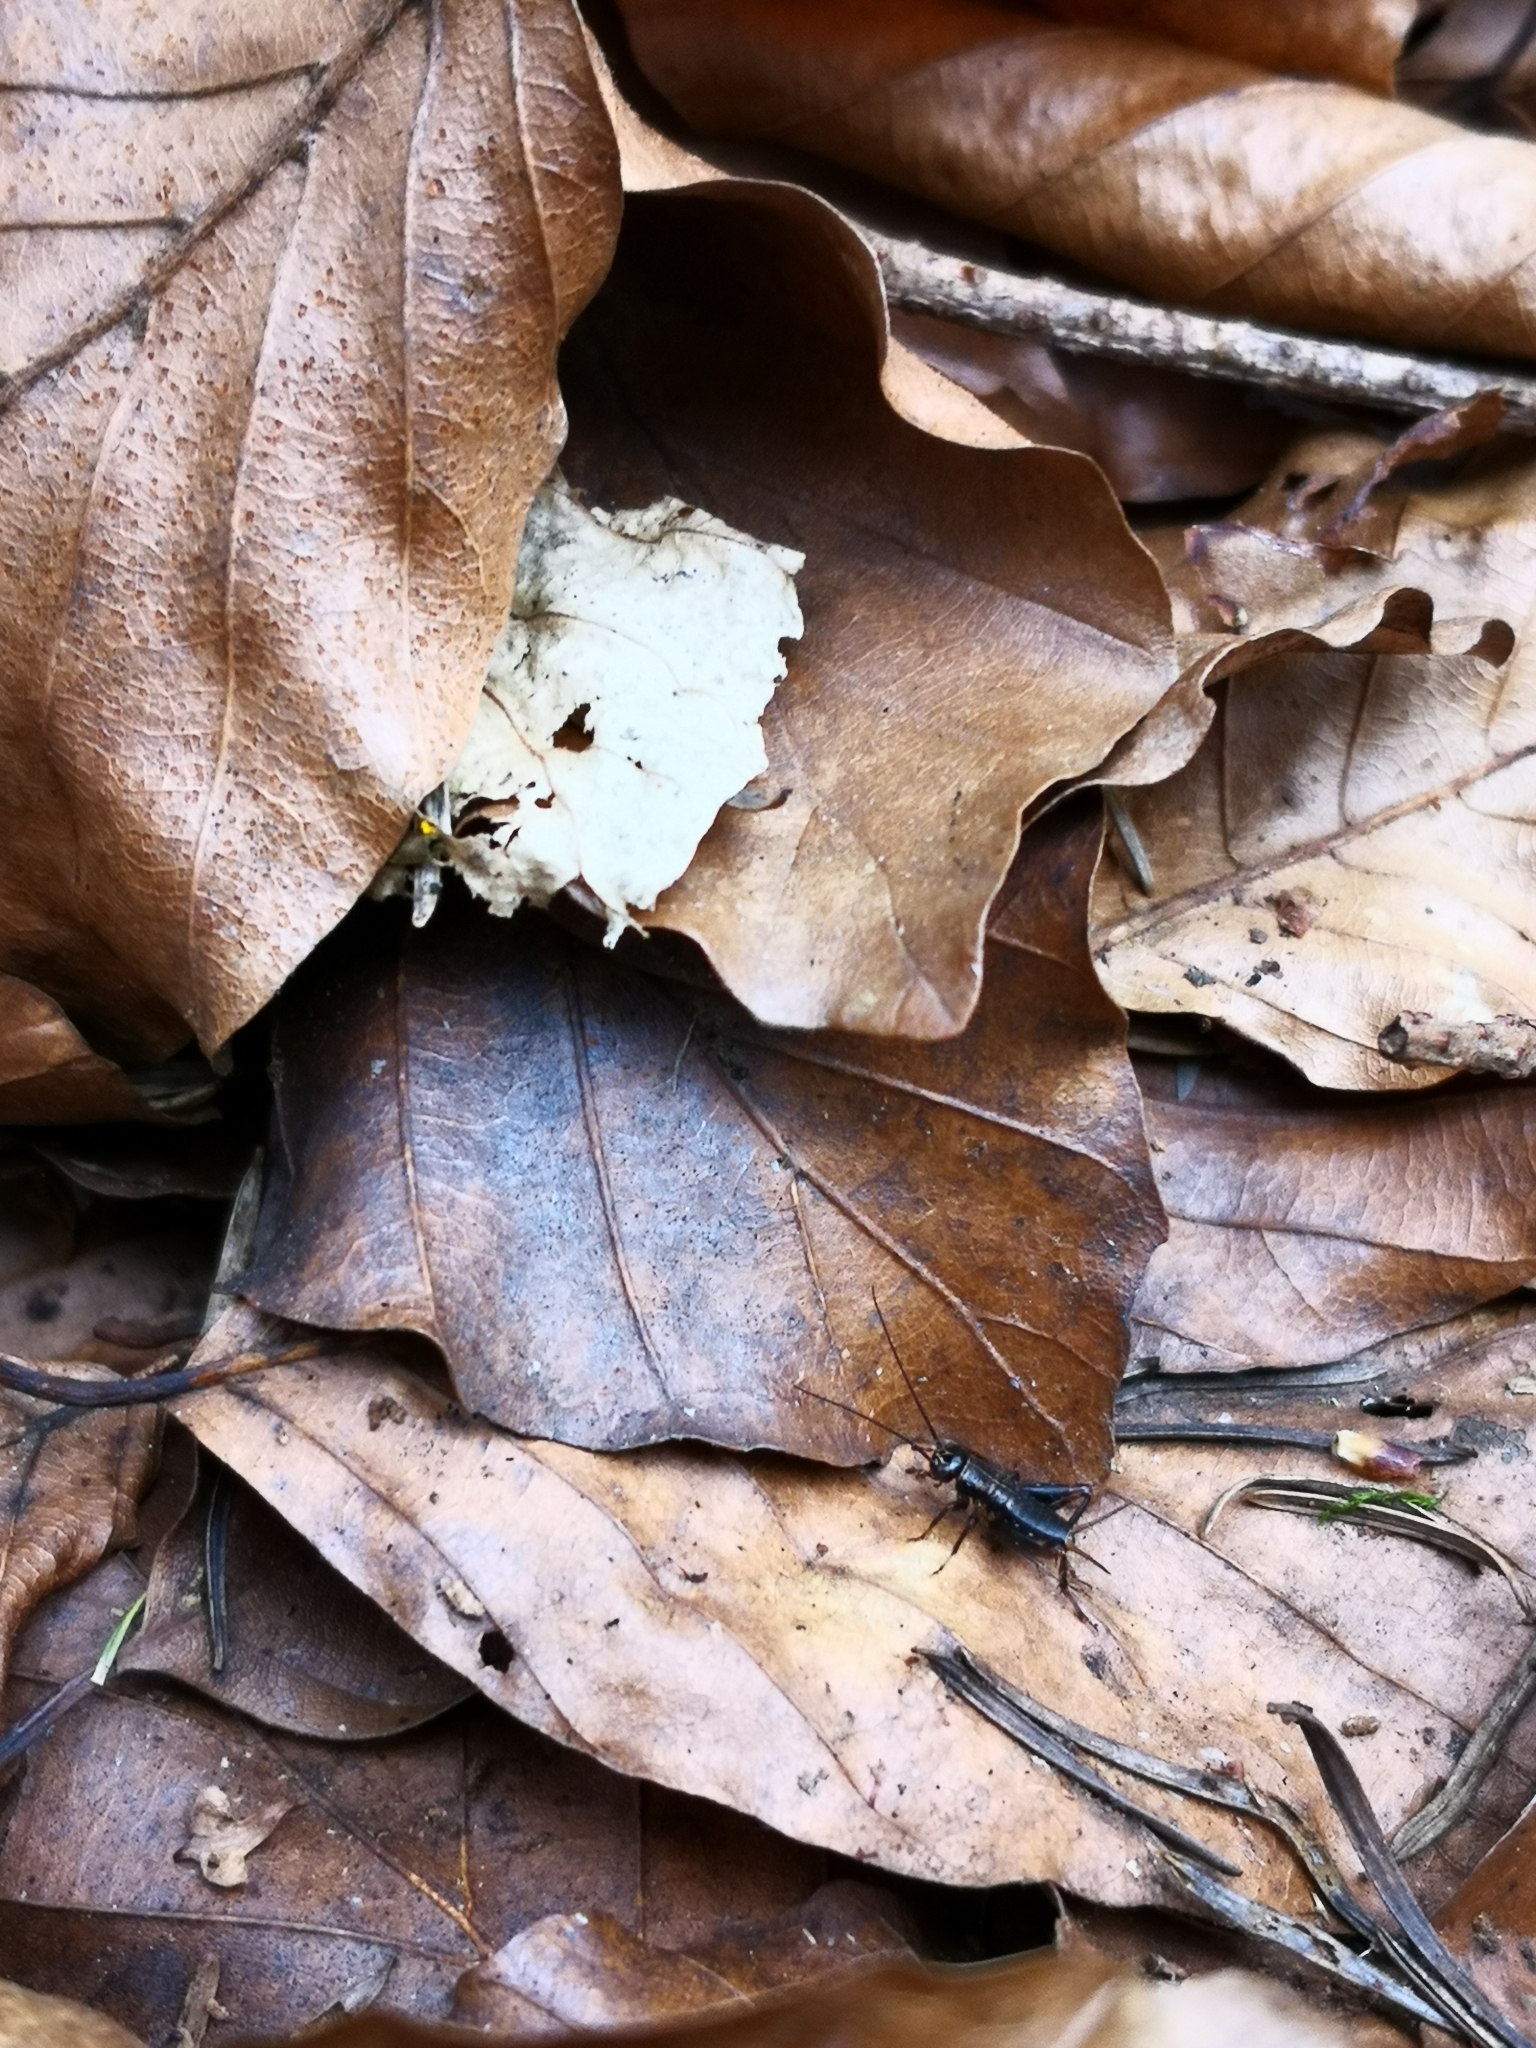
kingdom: Animalia
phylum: Arthropoda
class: Insecta
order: Orthoptera
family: Trigonidiidae
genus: Nemobius
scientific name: Nemobius sylvestris
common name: Wood-cricket
